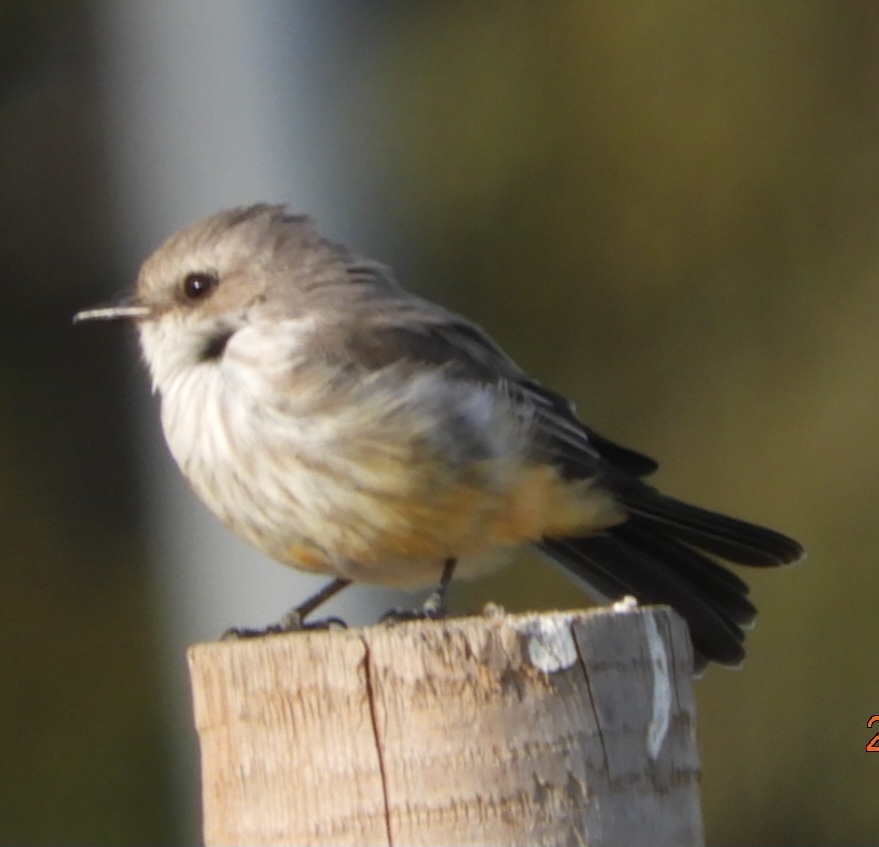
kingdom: Animalia
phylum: Chordata
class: Aves
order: Passeriformes
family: Tyrannidae
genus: Pyrocephalus
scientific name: Pyrocephalus rubinus
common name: Vermilion flycatcher
